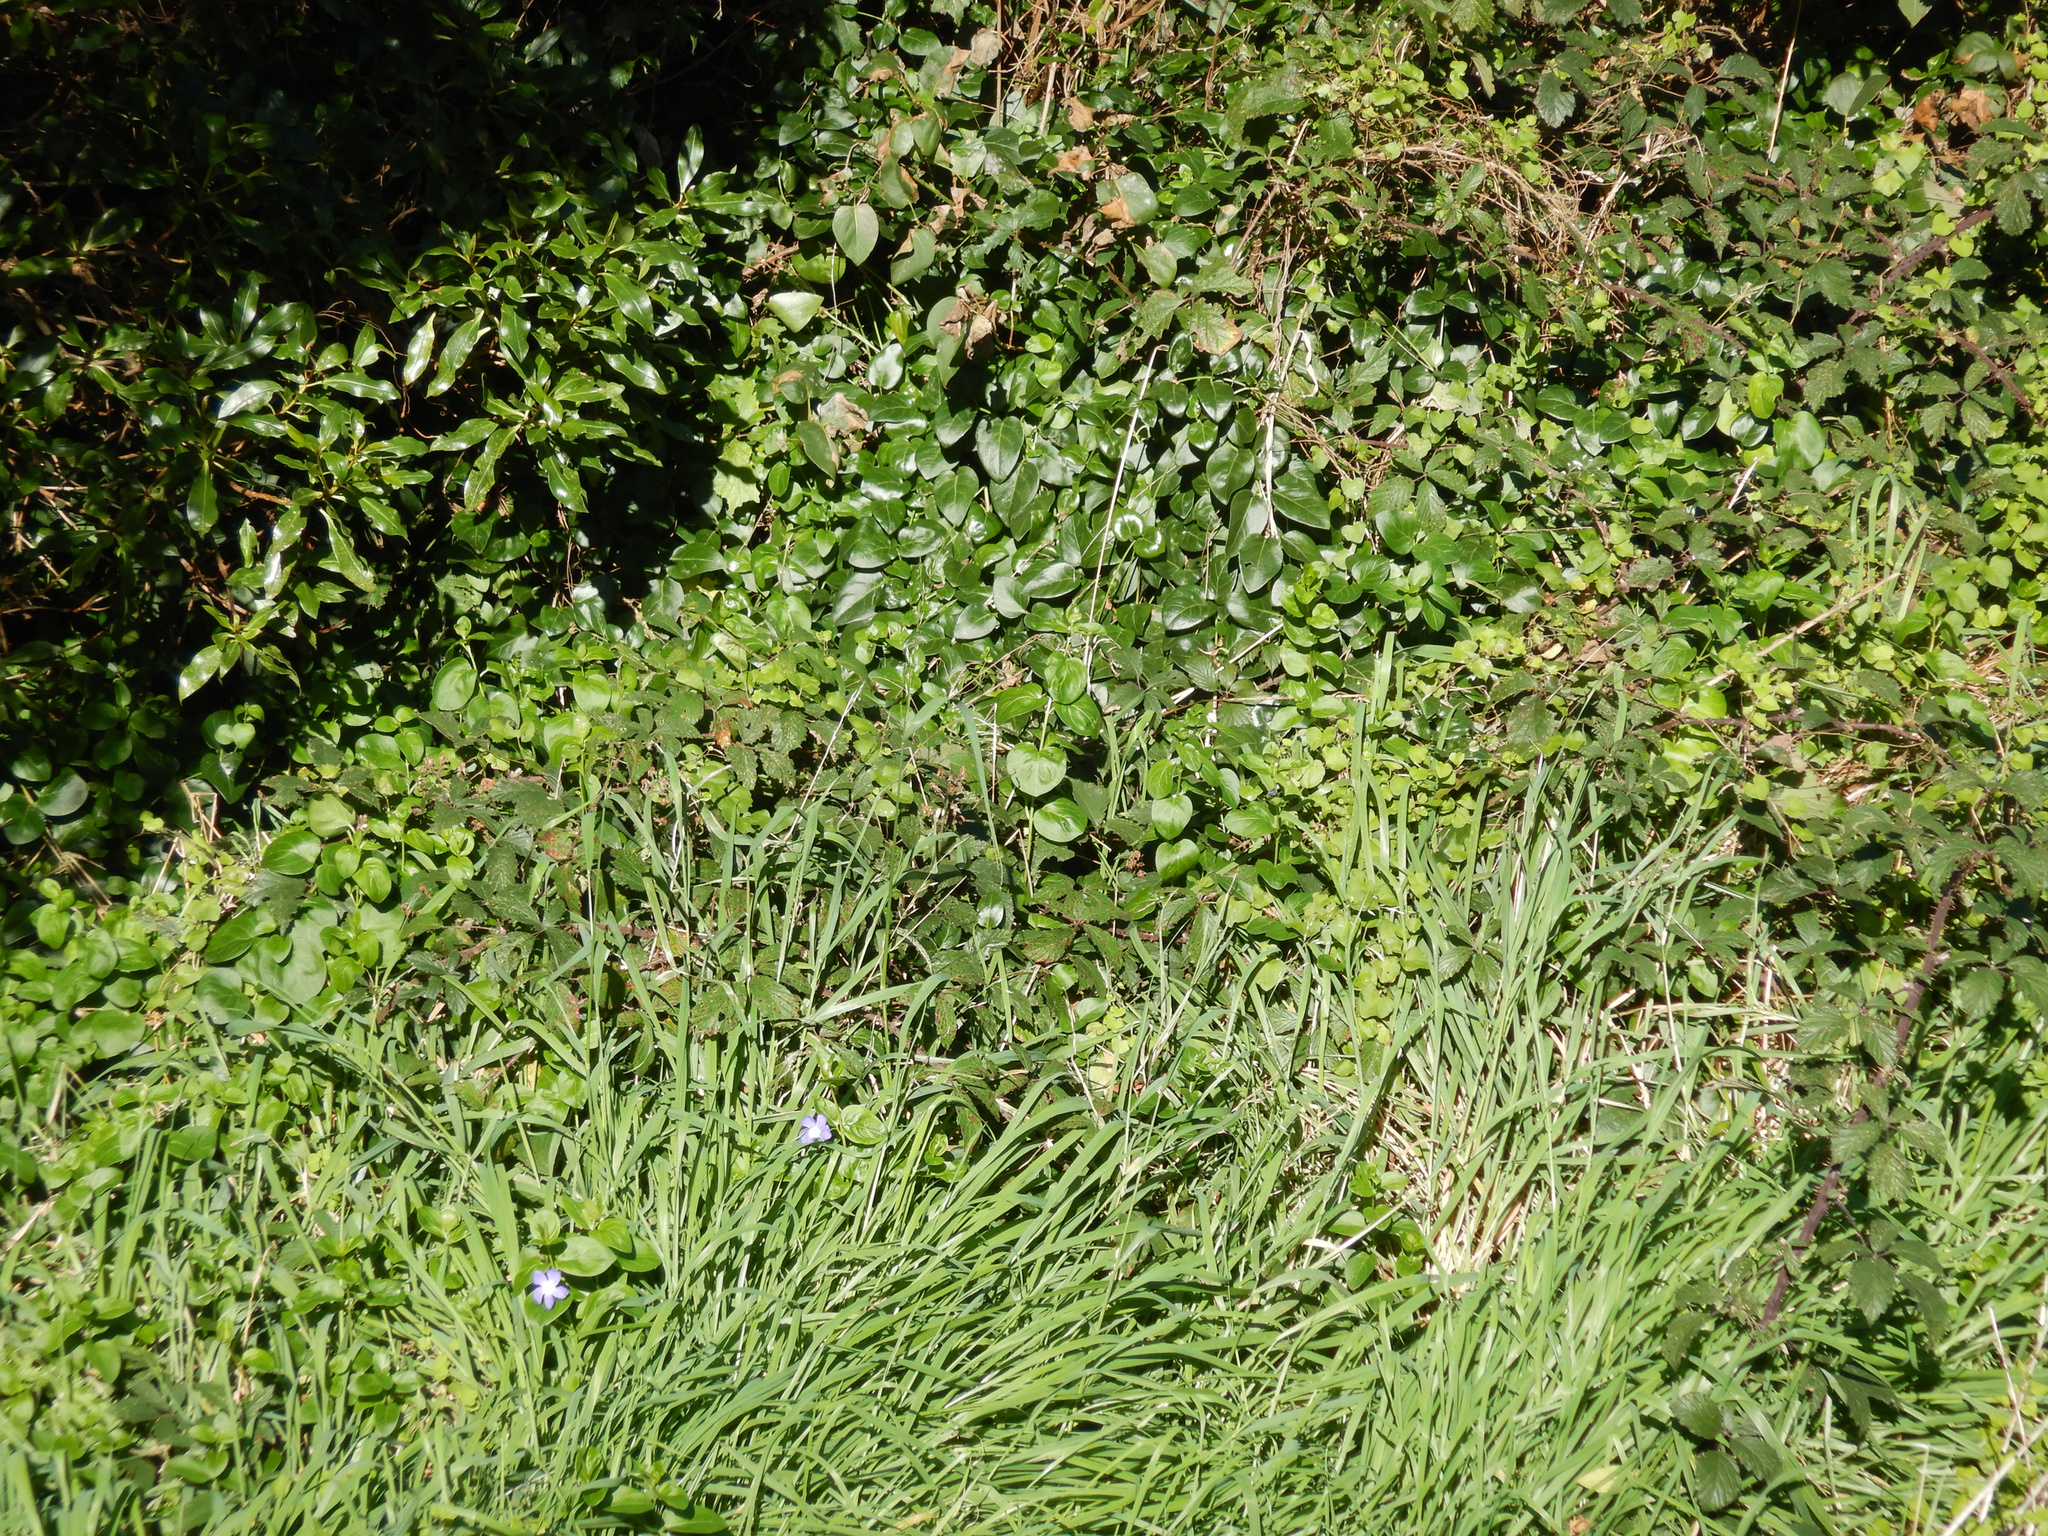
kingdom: Plantae
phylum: Tracheophyta
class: Magnoliopsida
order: Gentianales
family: Apocynaceae
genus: Vinca
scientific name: Vinca major
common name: Greater periwinkle
